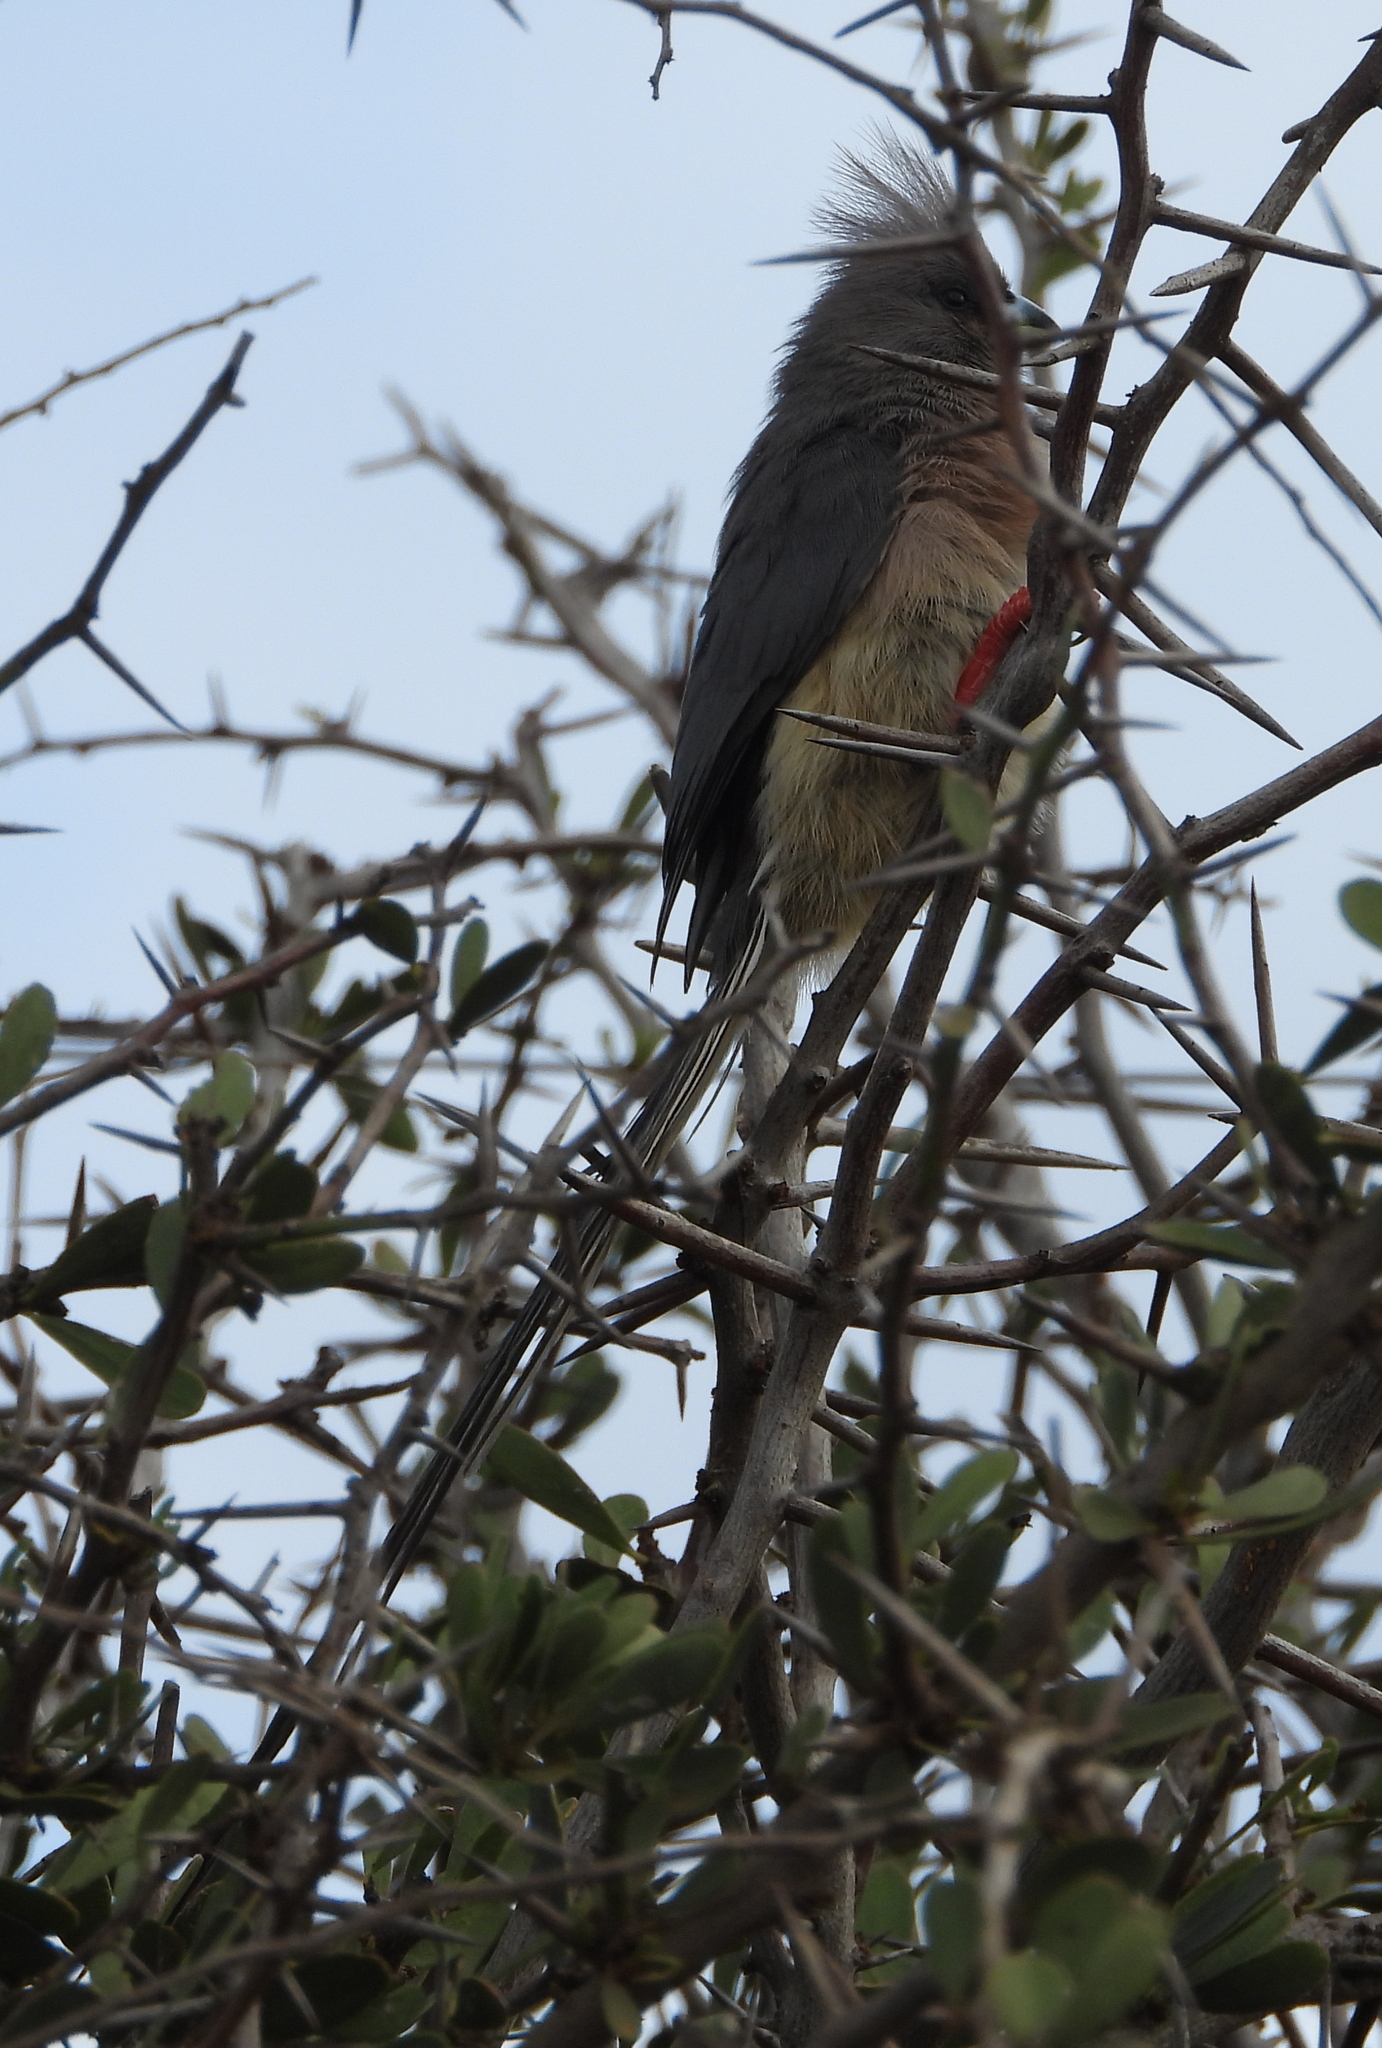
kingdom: Animalia
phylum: Chordata
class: Aves
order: Coliiformes
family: Coliidae
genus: Colius
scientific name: Colius colius
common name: White-backed mousebird
